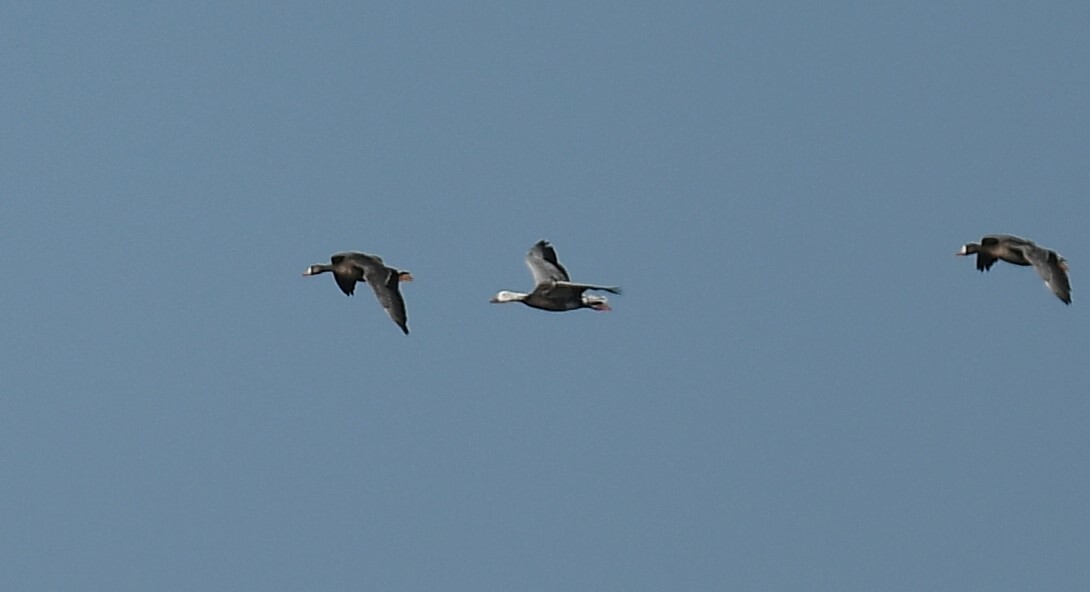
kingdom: Animalia
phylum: Chordata
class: Aves
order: Anseriformes
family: Anatidae
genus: Anser
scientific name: Anser caerulescens
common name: Snow goose
